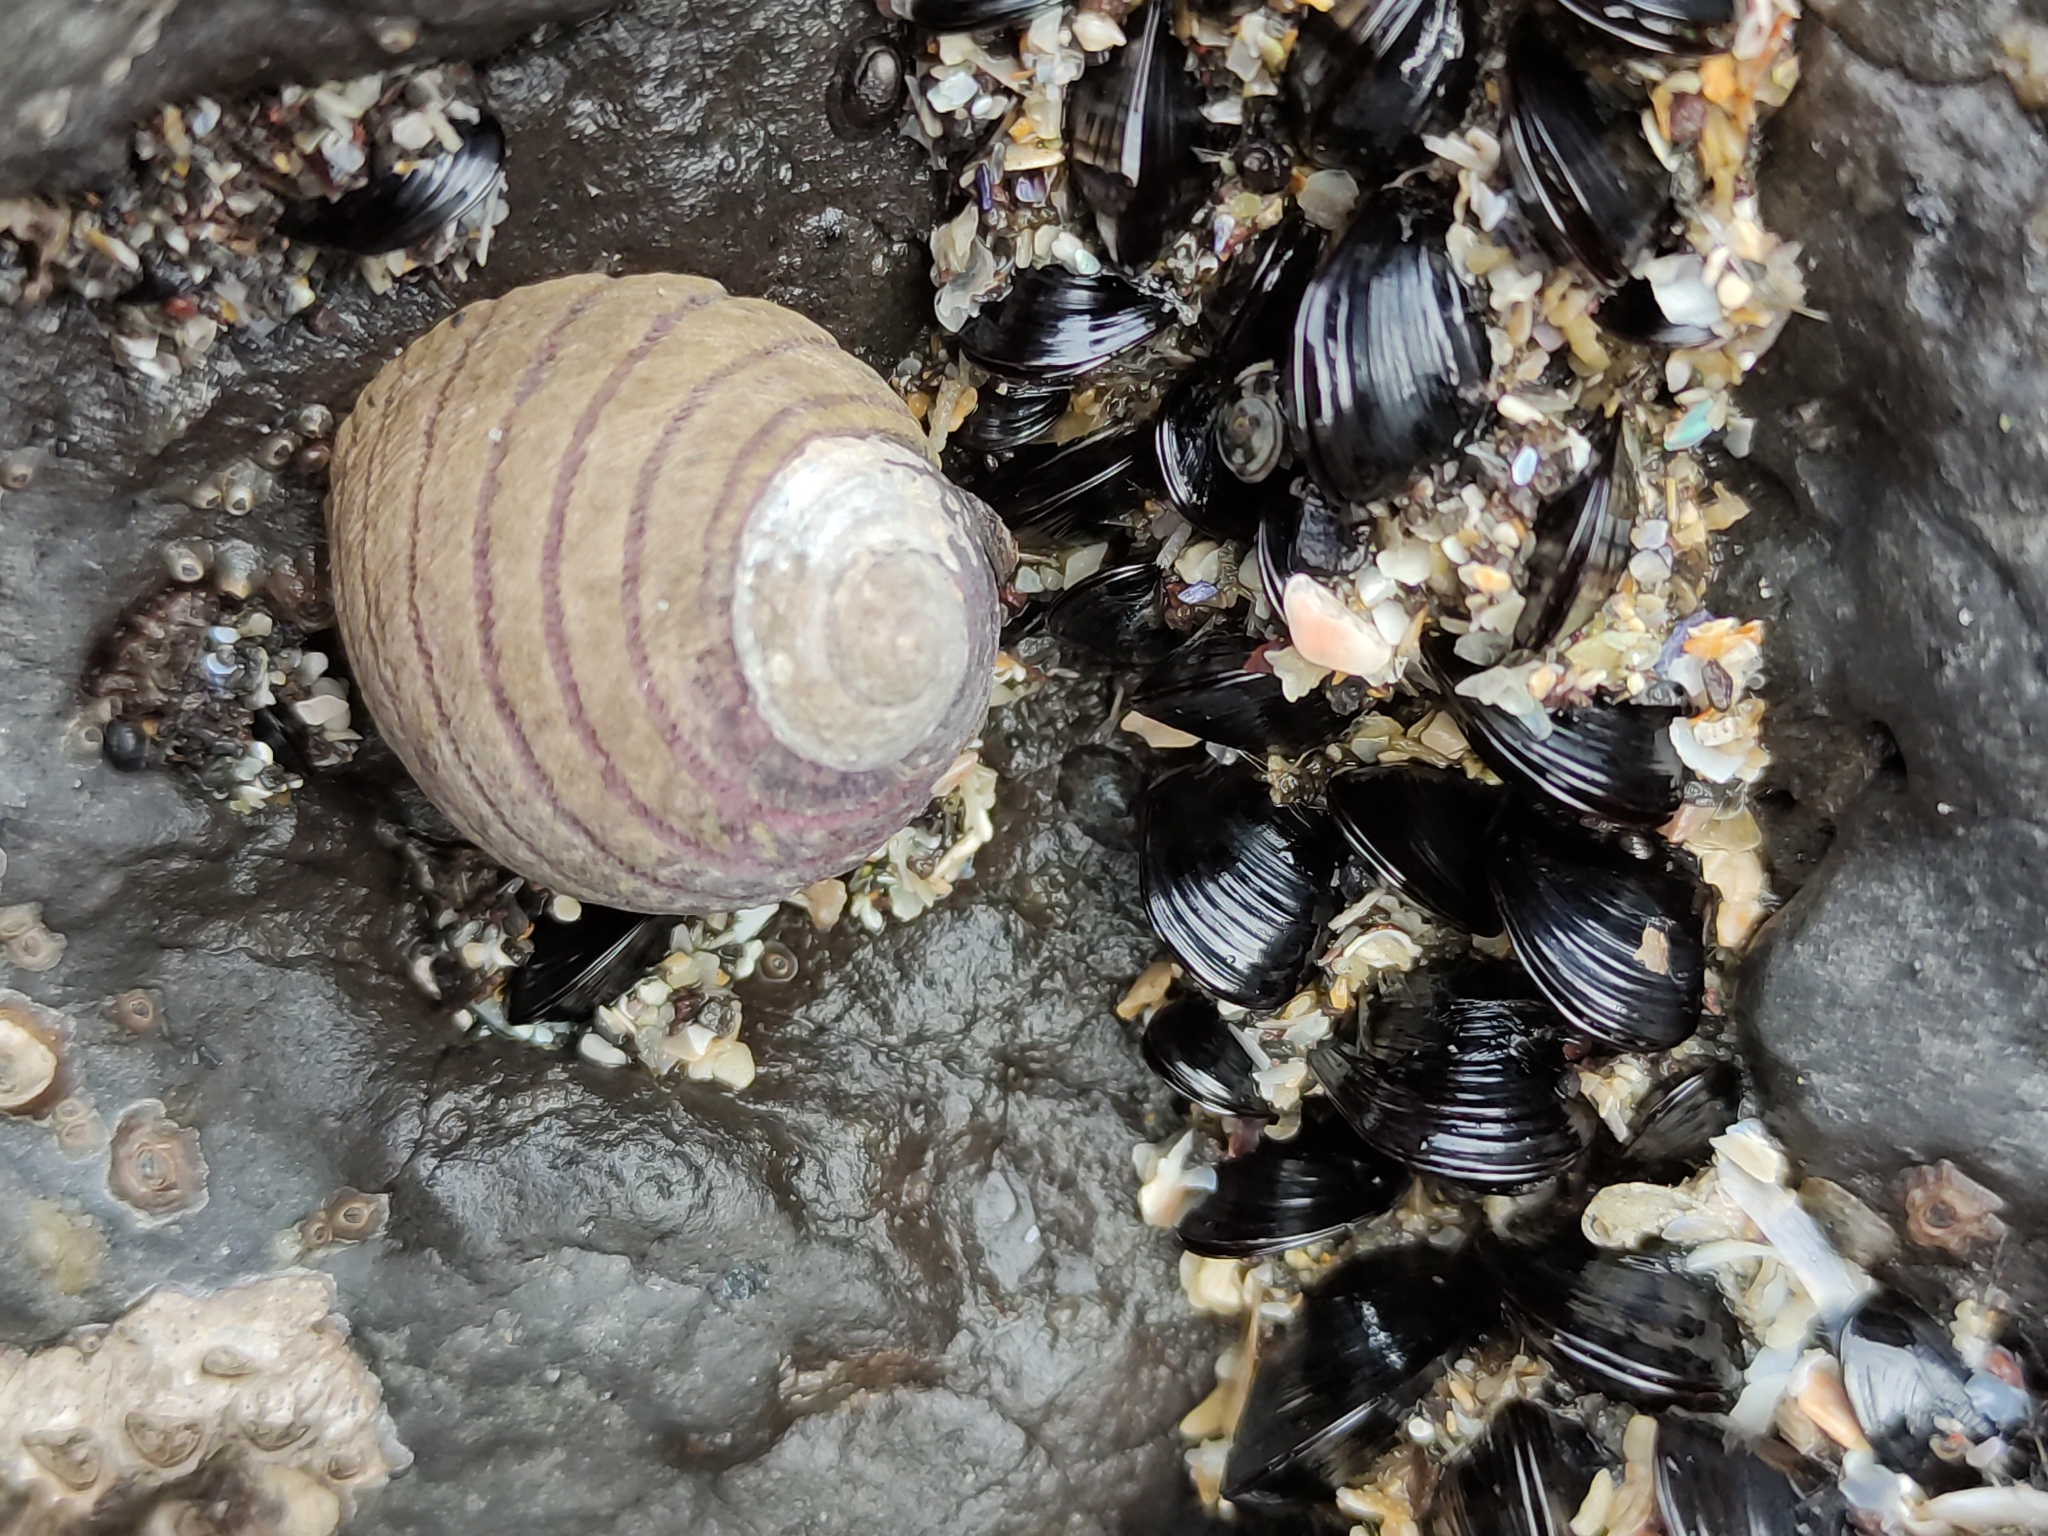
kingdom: Animalia
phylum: Mollusca
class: Gastropoda
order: Trochida
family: Trochidae
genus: Diloma
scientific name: Diloma aethiops
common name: Scorched monodont
